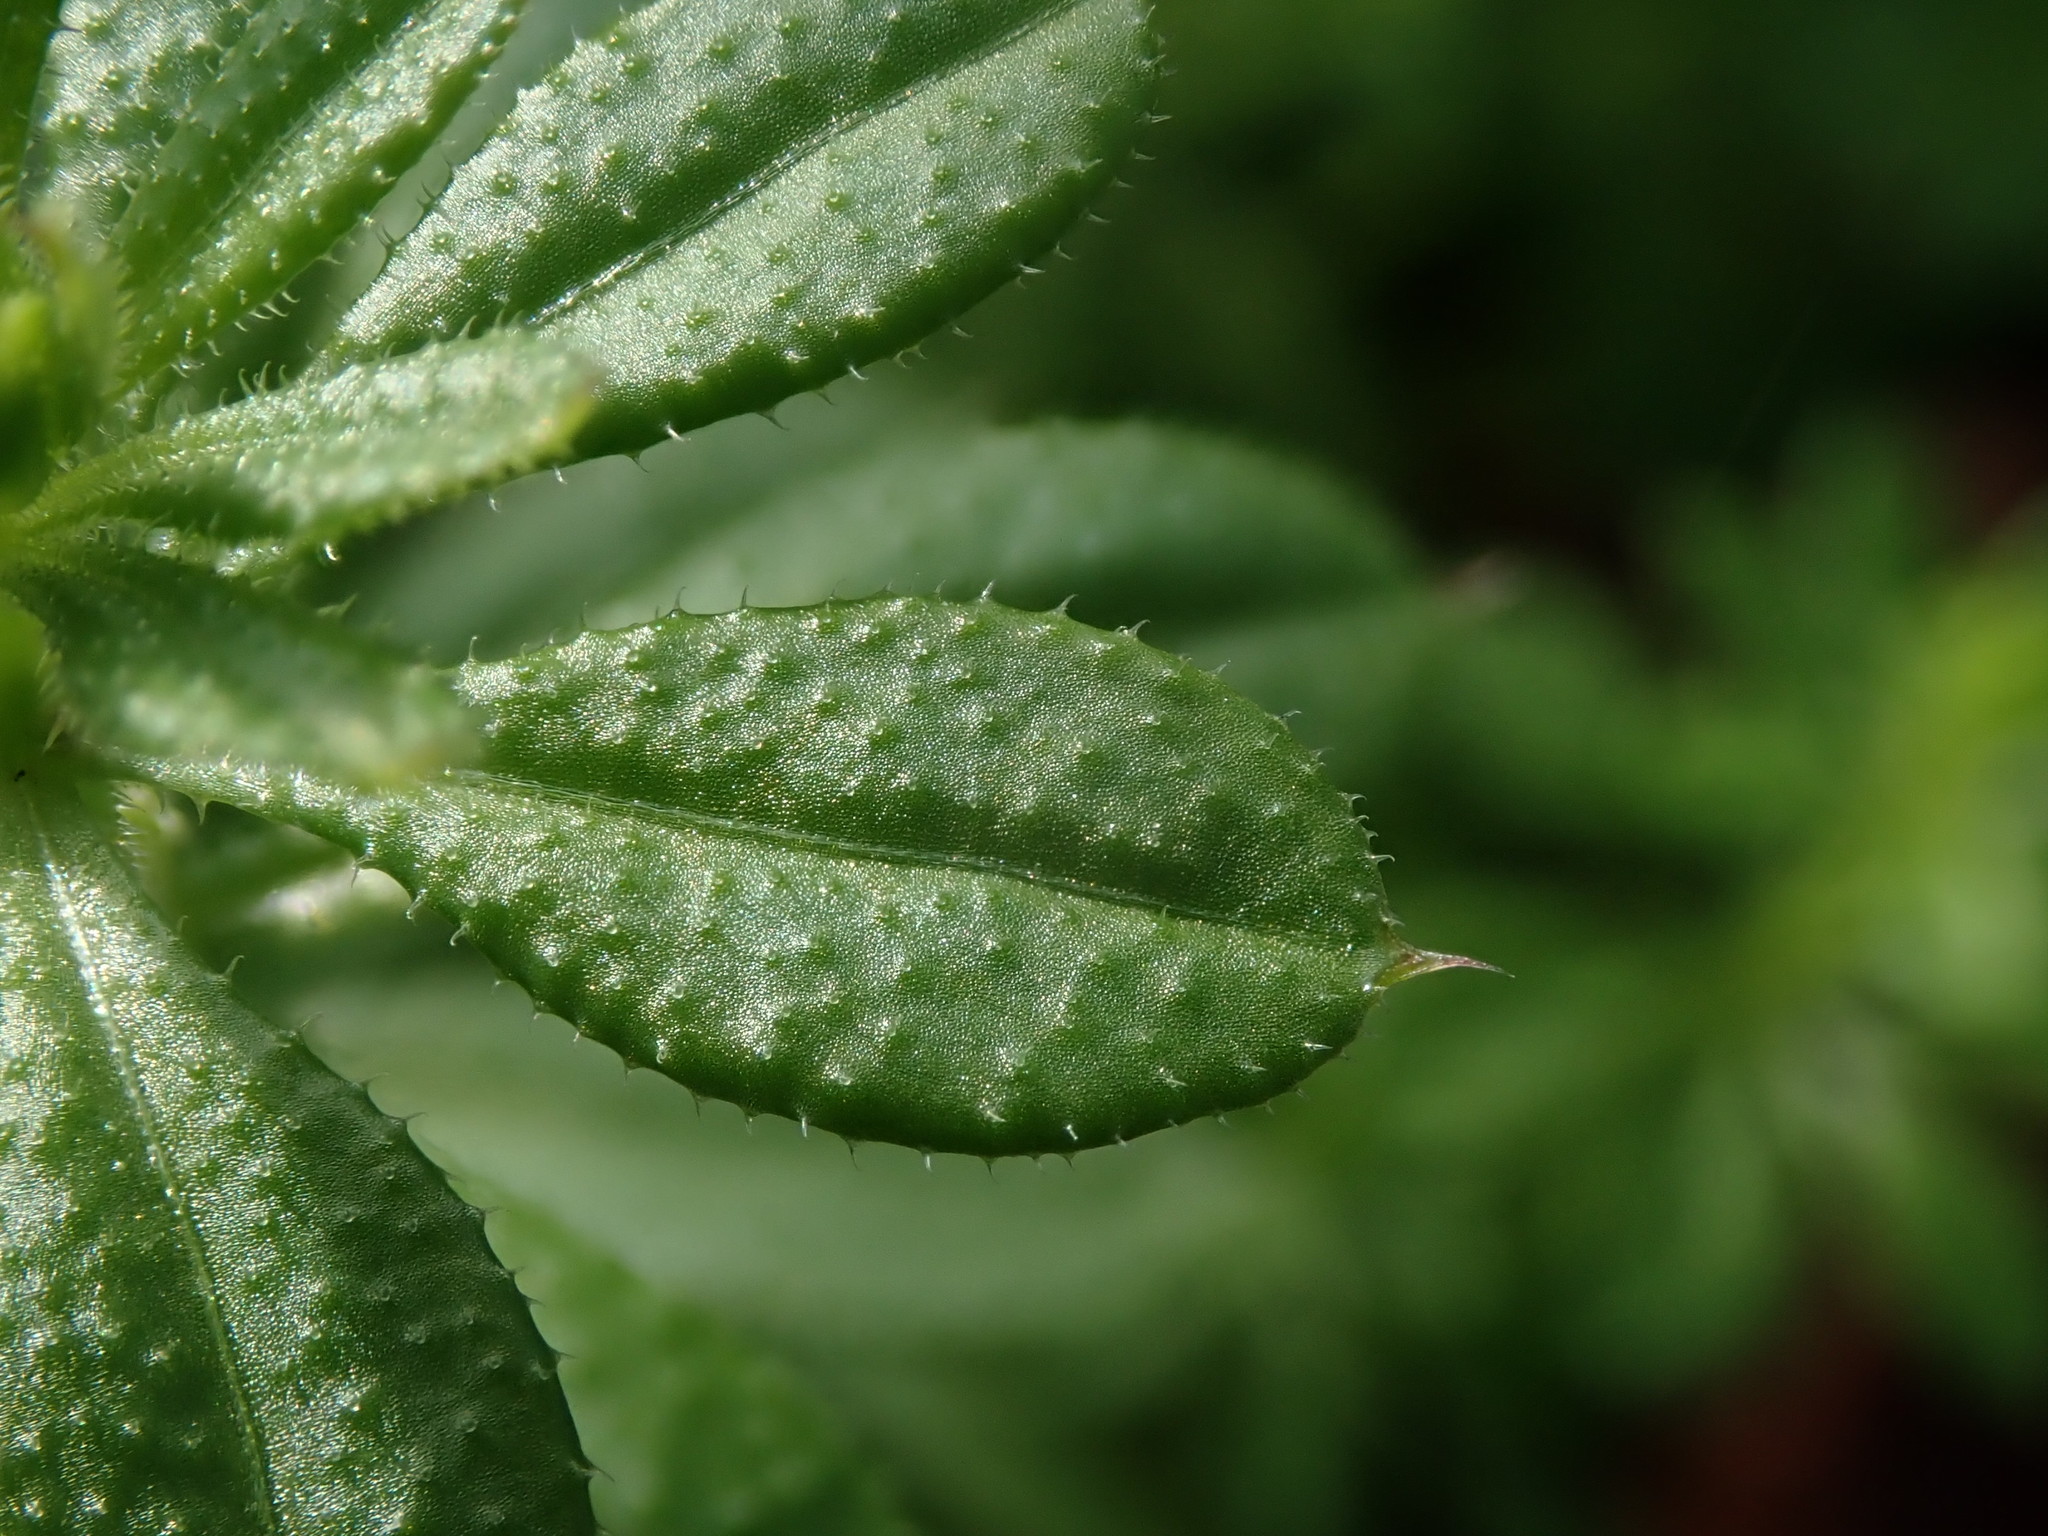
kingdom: Plantae
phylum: Tracheophyta
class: Magnoliopsida
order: Gentianales
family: Rubiaceae
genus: Galium
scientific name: Galium aparine
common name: Cleavers
